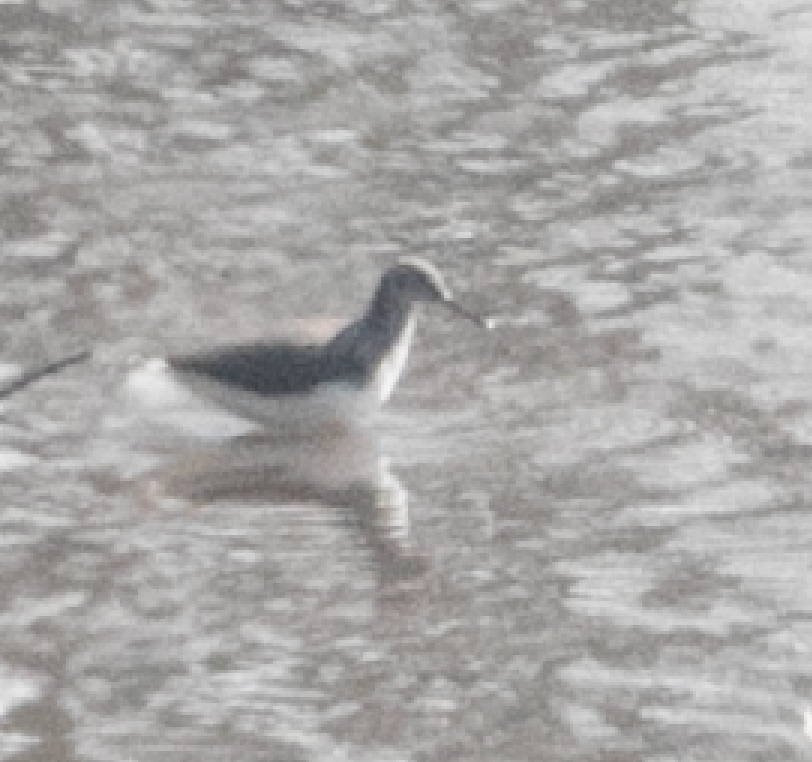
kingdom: Animalia
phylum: Chordata
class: Aves
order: Charadriiformes
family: Scolopacidae
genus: Tringa
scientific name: Tringa ochropus
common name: Green sandpiper
